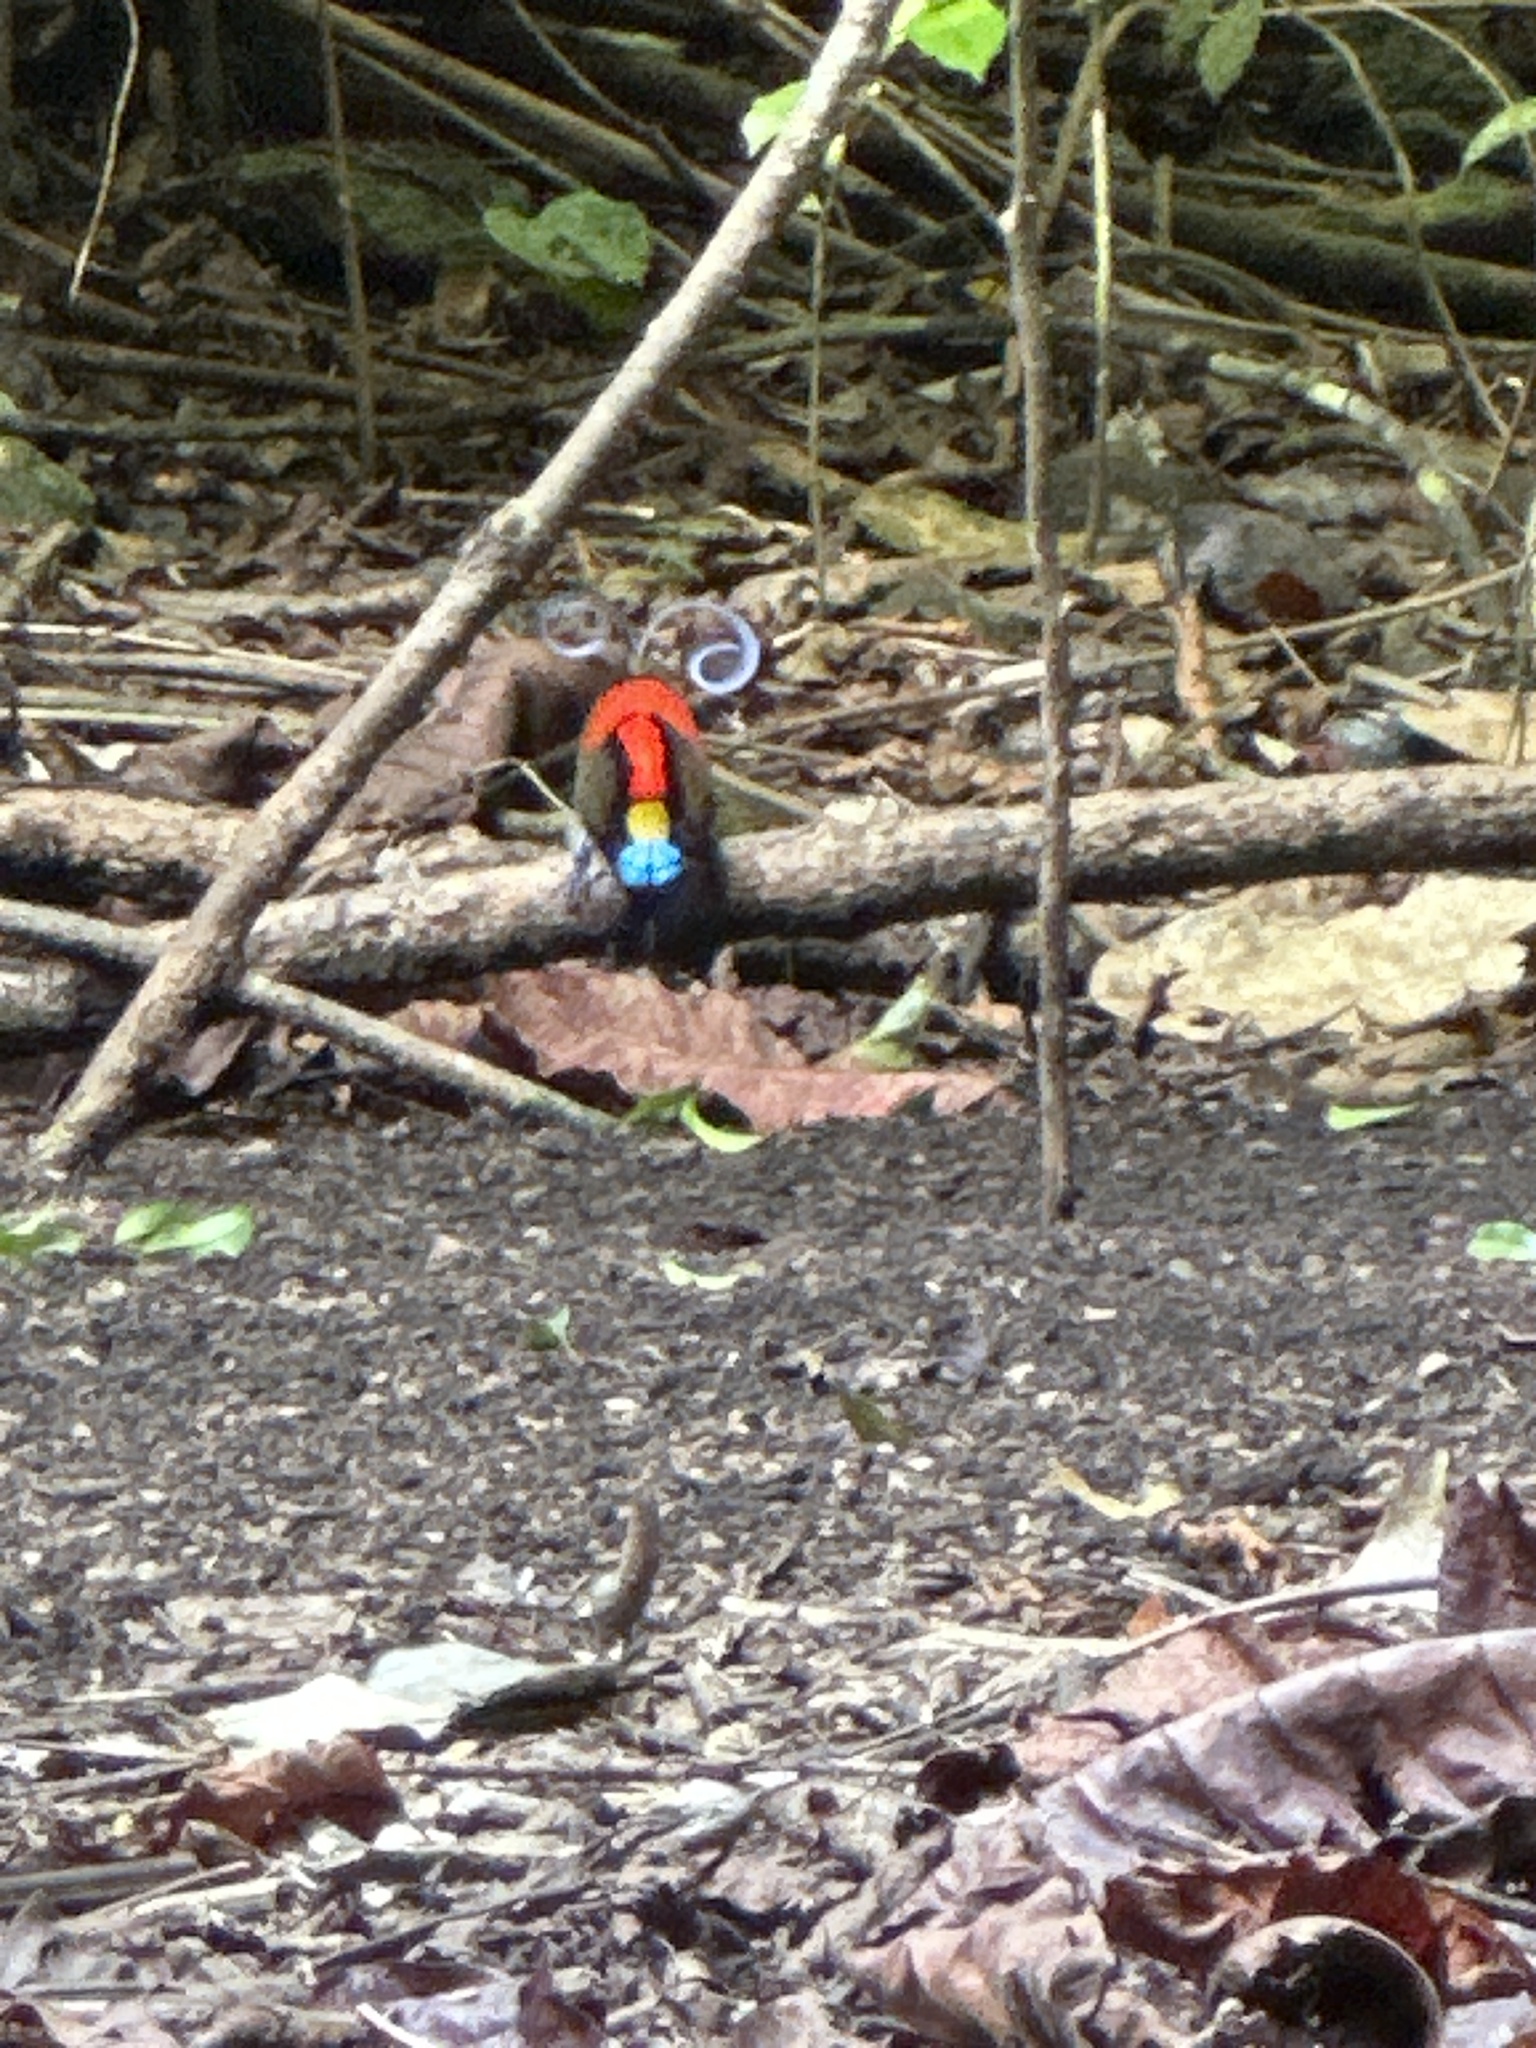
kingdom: Animalia
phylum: Chordata
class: Aves
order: Passeriformes
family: Paradisaeidae
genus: Diphyllodes
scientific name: Diphyllodes respublica
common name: Wilson's bird-of-paradise
